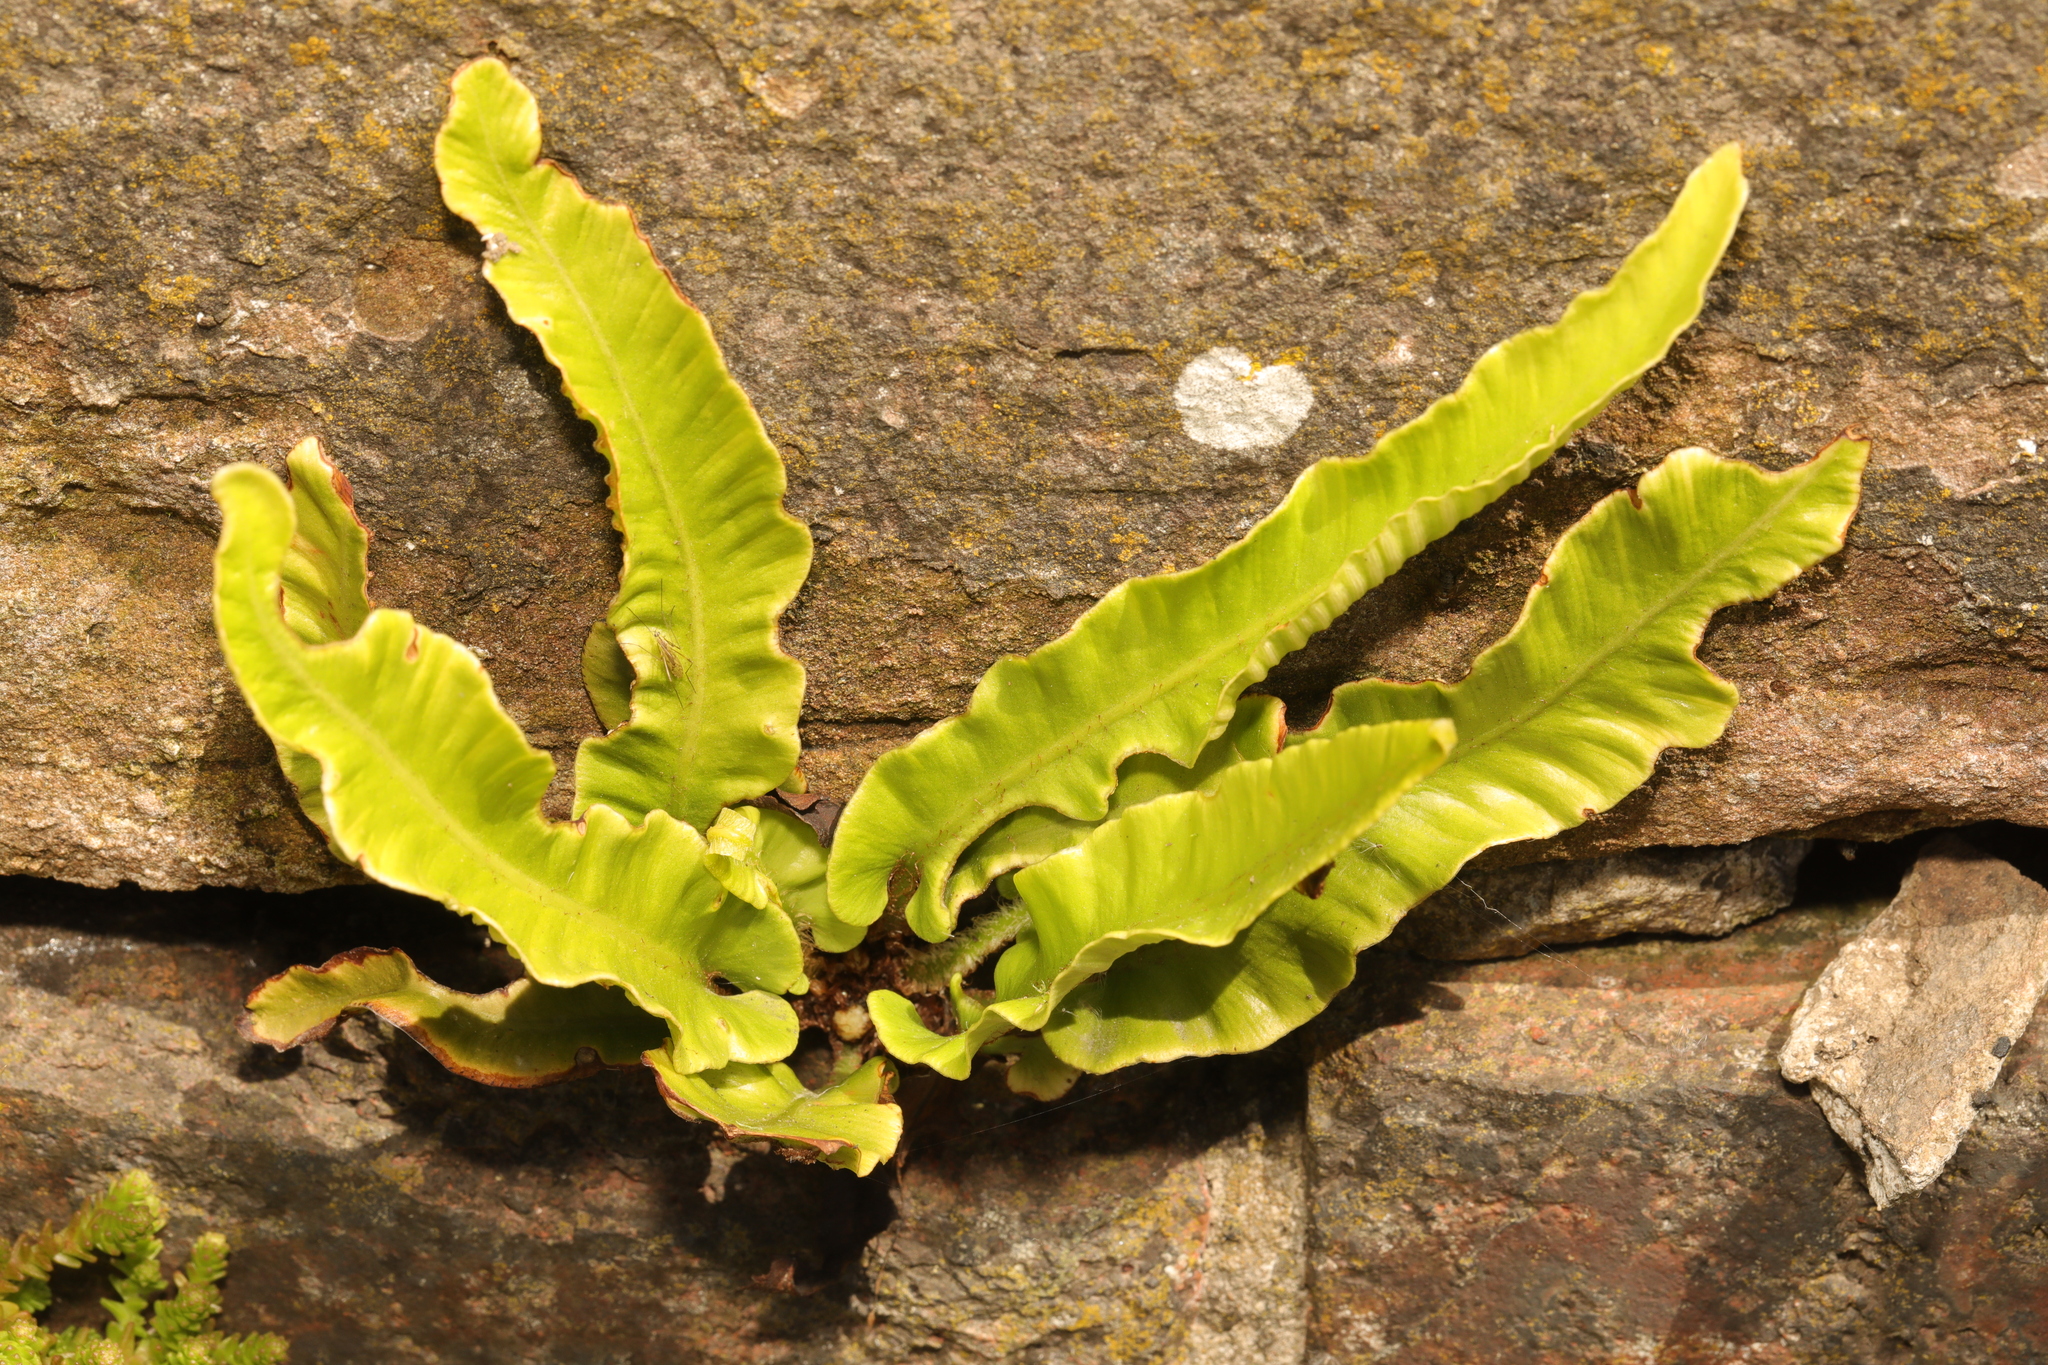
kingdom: Plantae
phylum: Tracheophyta
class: Polypodiopsida
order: Polypodiales
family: Aspleniaceae
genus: Asplenium
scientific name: Asplenium scolopendrium
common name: Hart's-tongue fern
